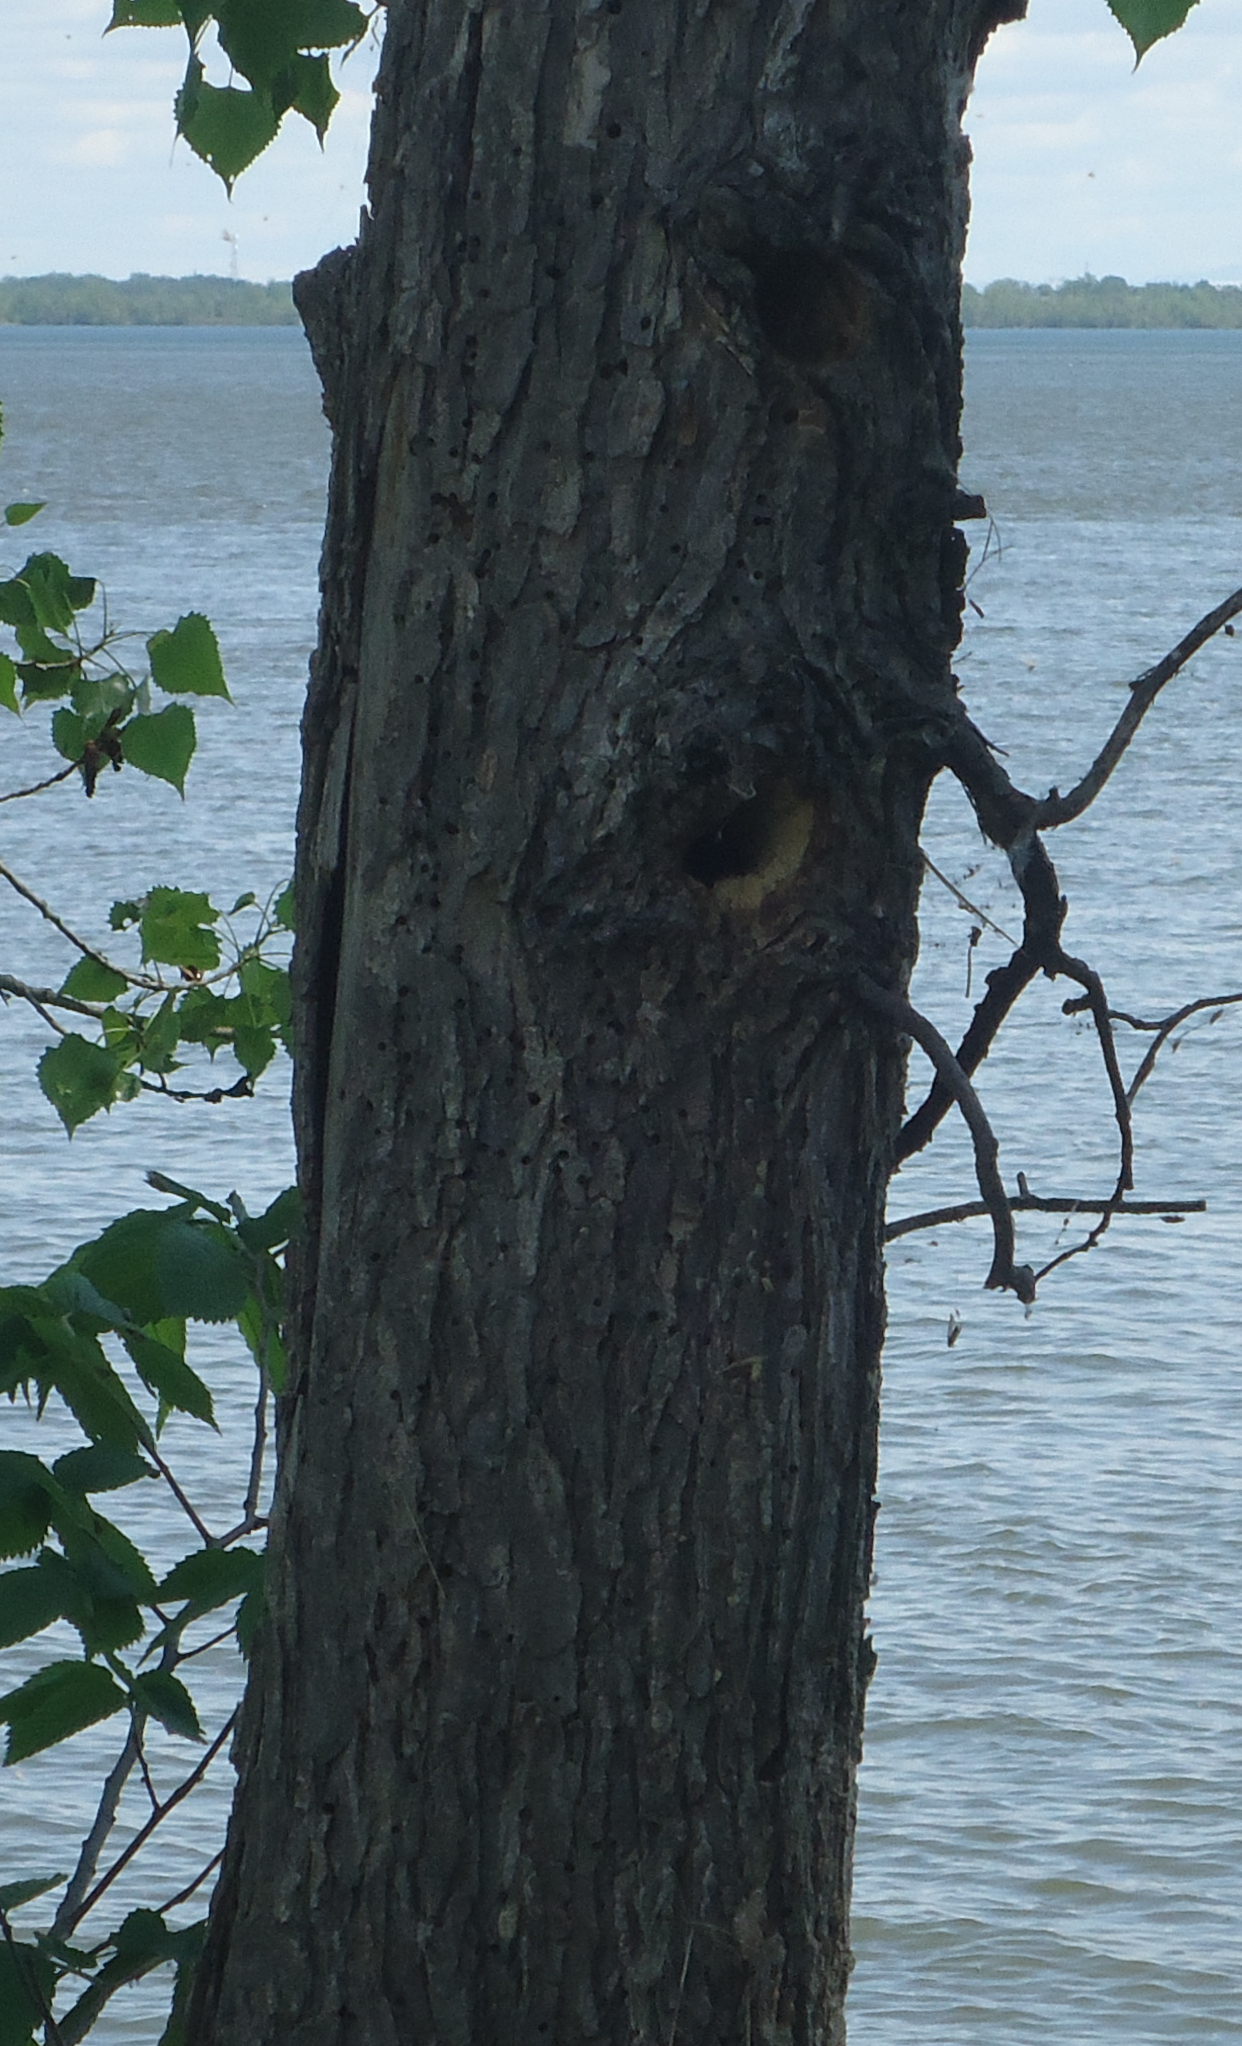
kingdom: Animalia
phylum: Chordata
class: Aves
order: Passeriformes
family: Hirundinidae
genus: Tachycineta
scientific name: Tachycineta bicolor
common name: Tree swallow
